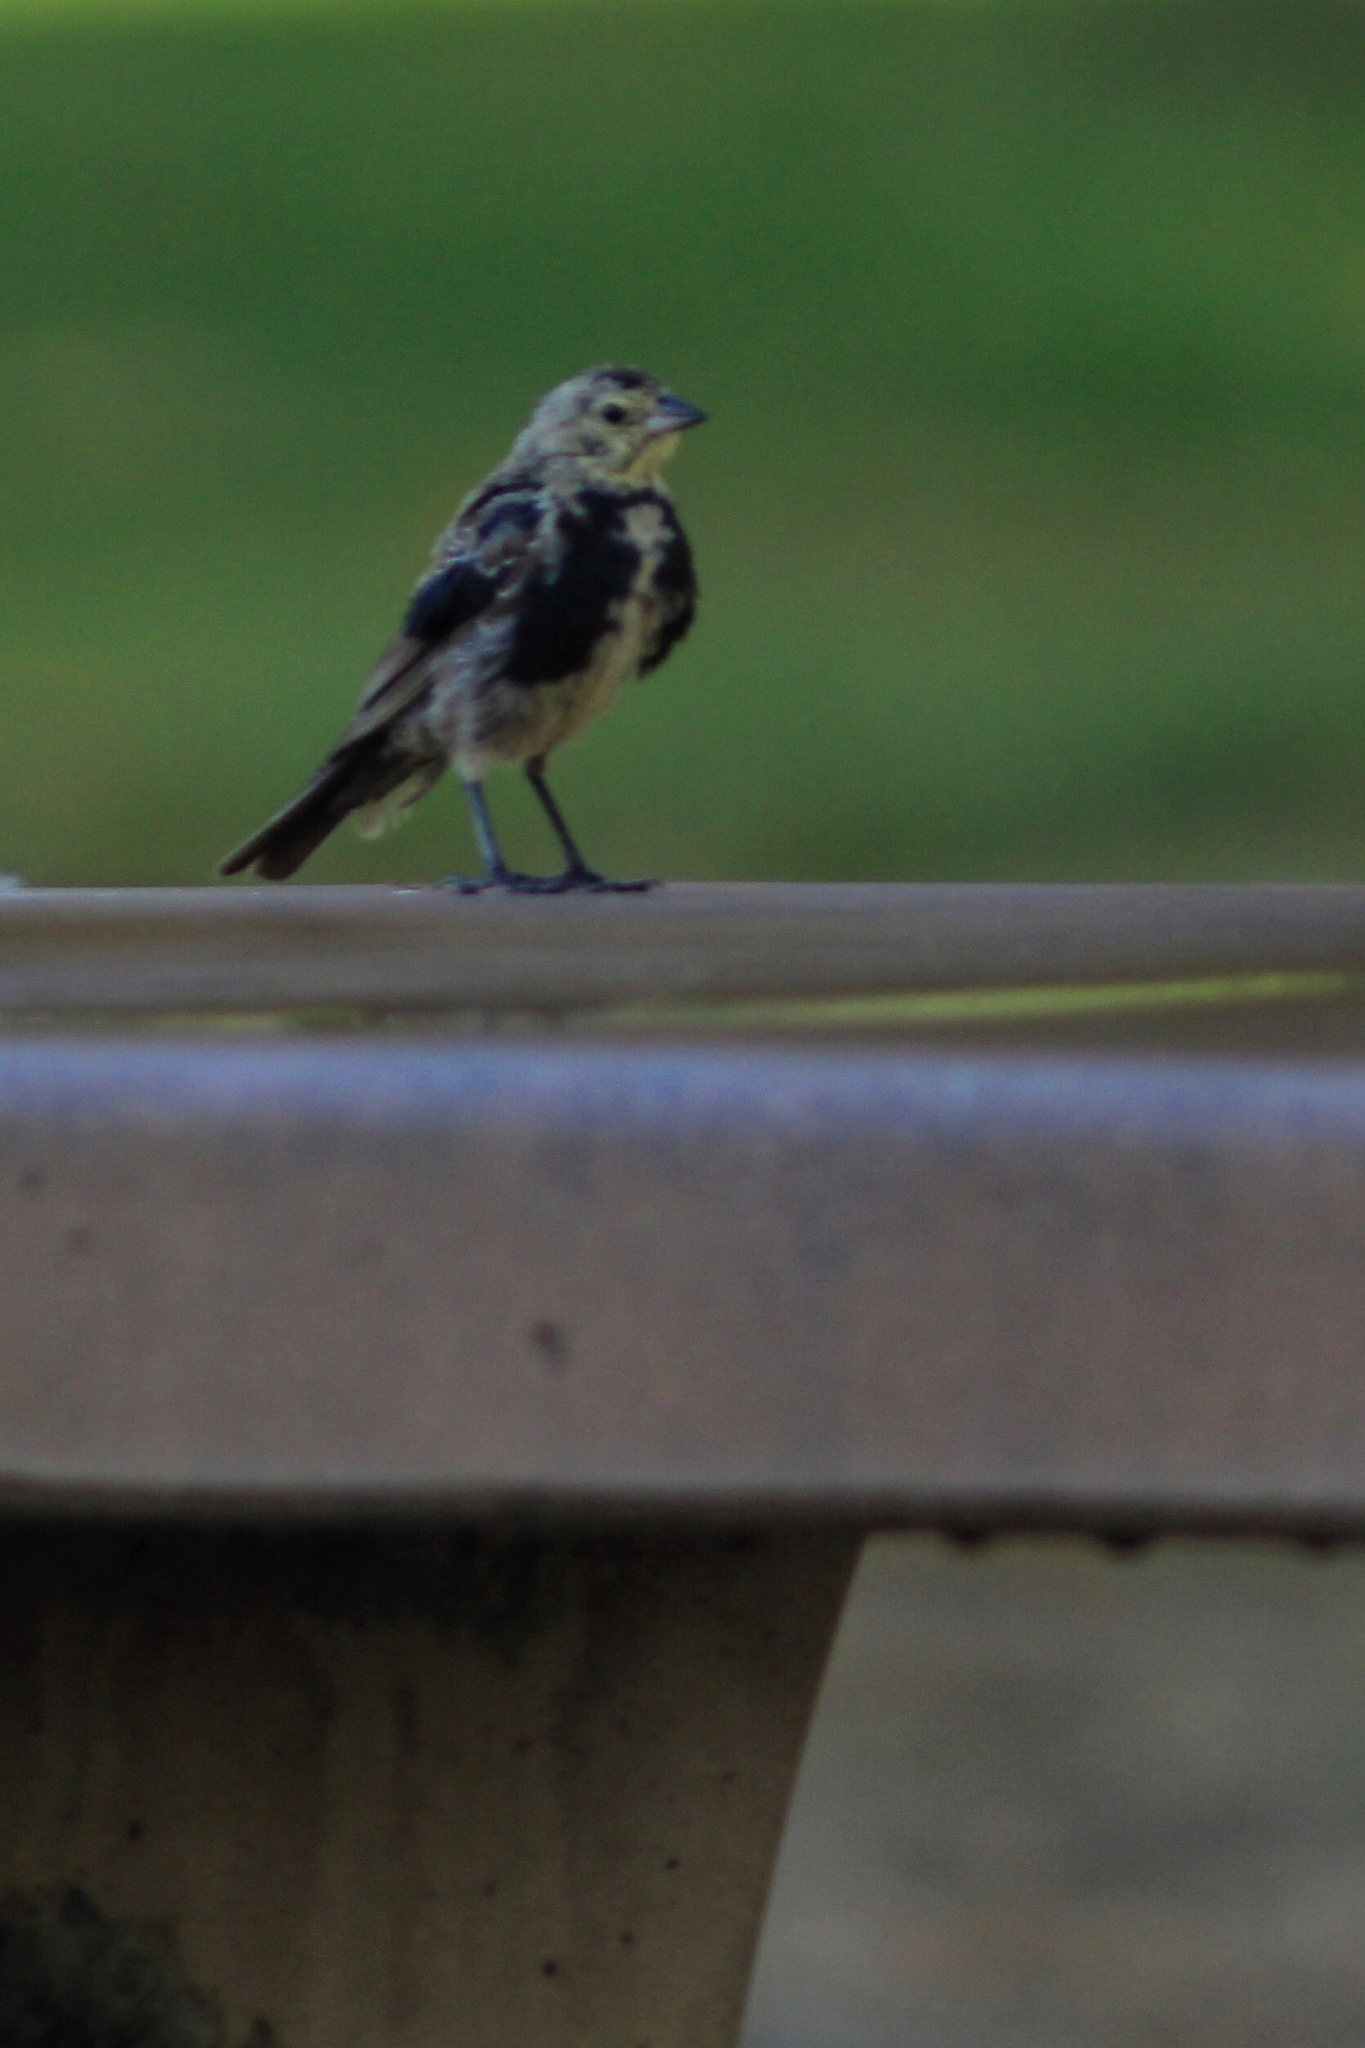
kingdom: Animalia
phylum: Chordata
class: Aves
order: Passeriformes
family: Icteridae
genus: Molothrus
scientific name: Molothrus ater
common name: Brown-headed cowbird
